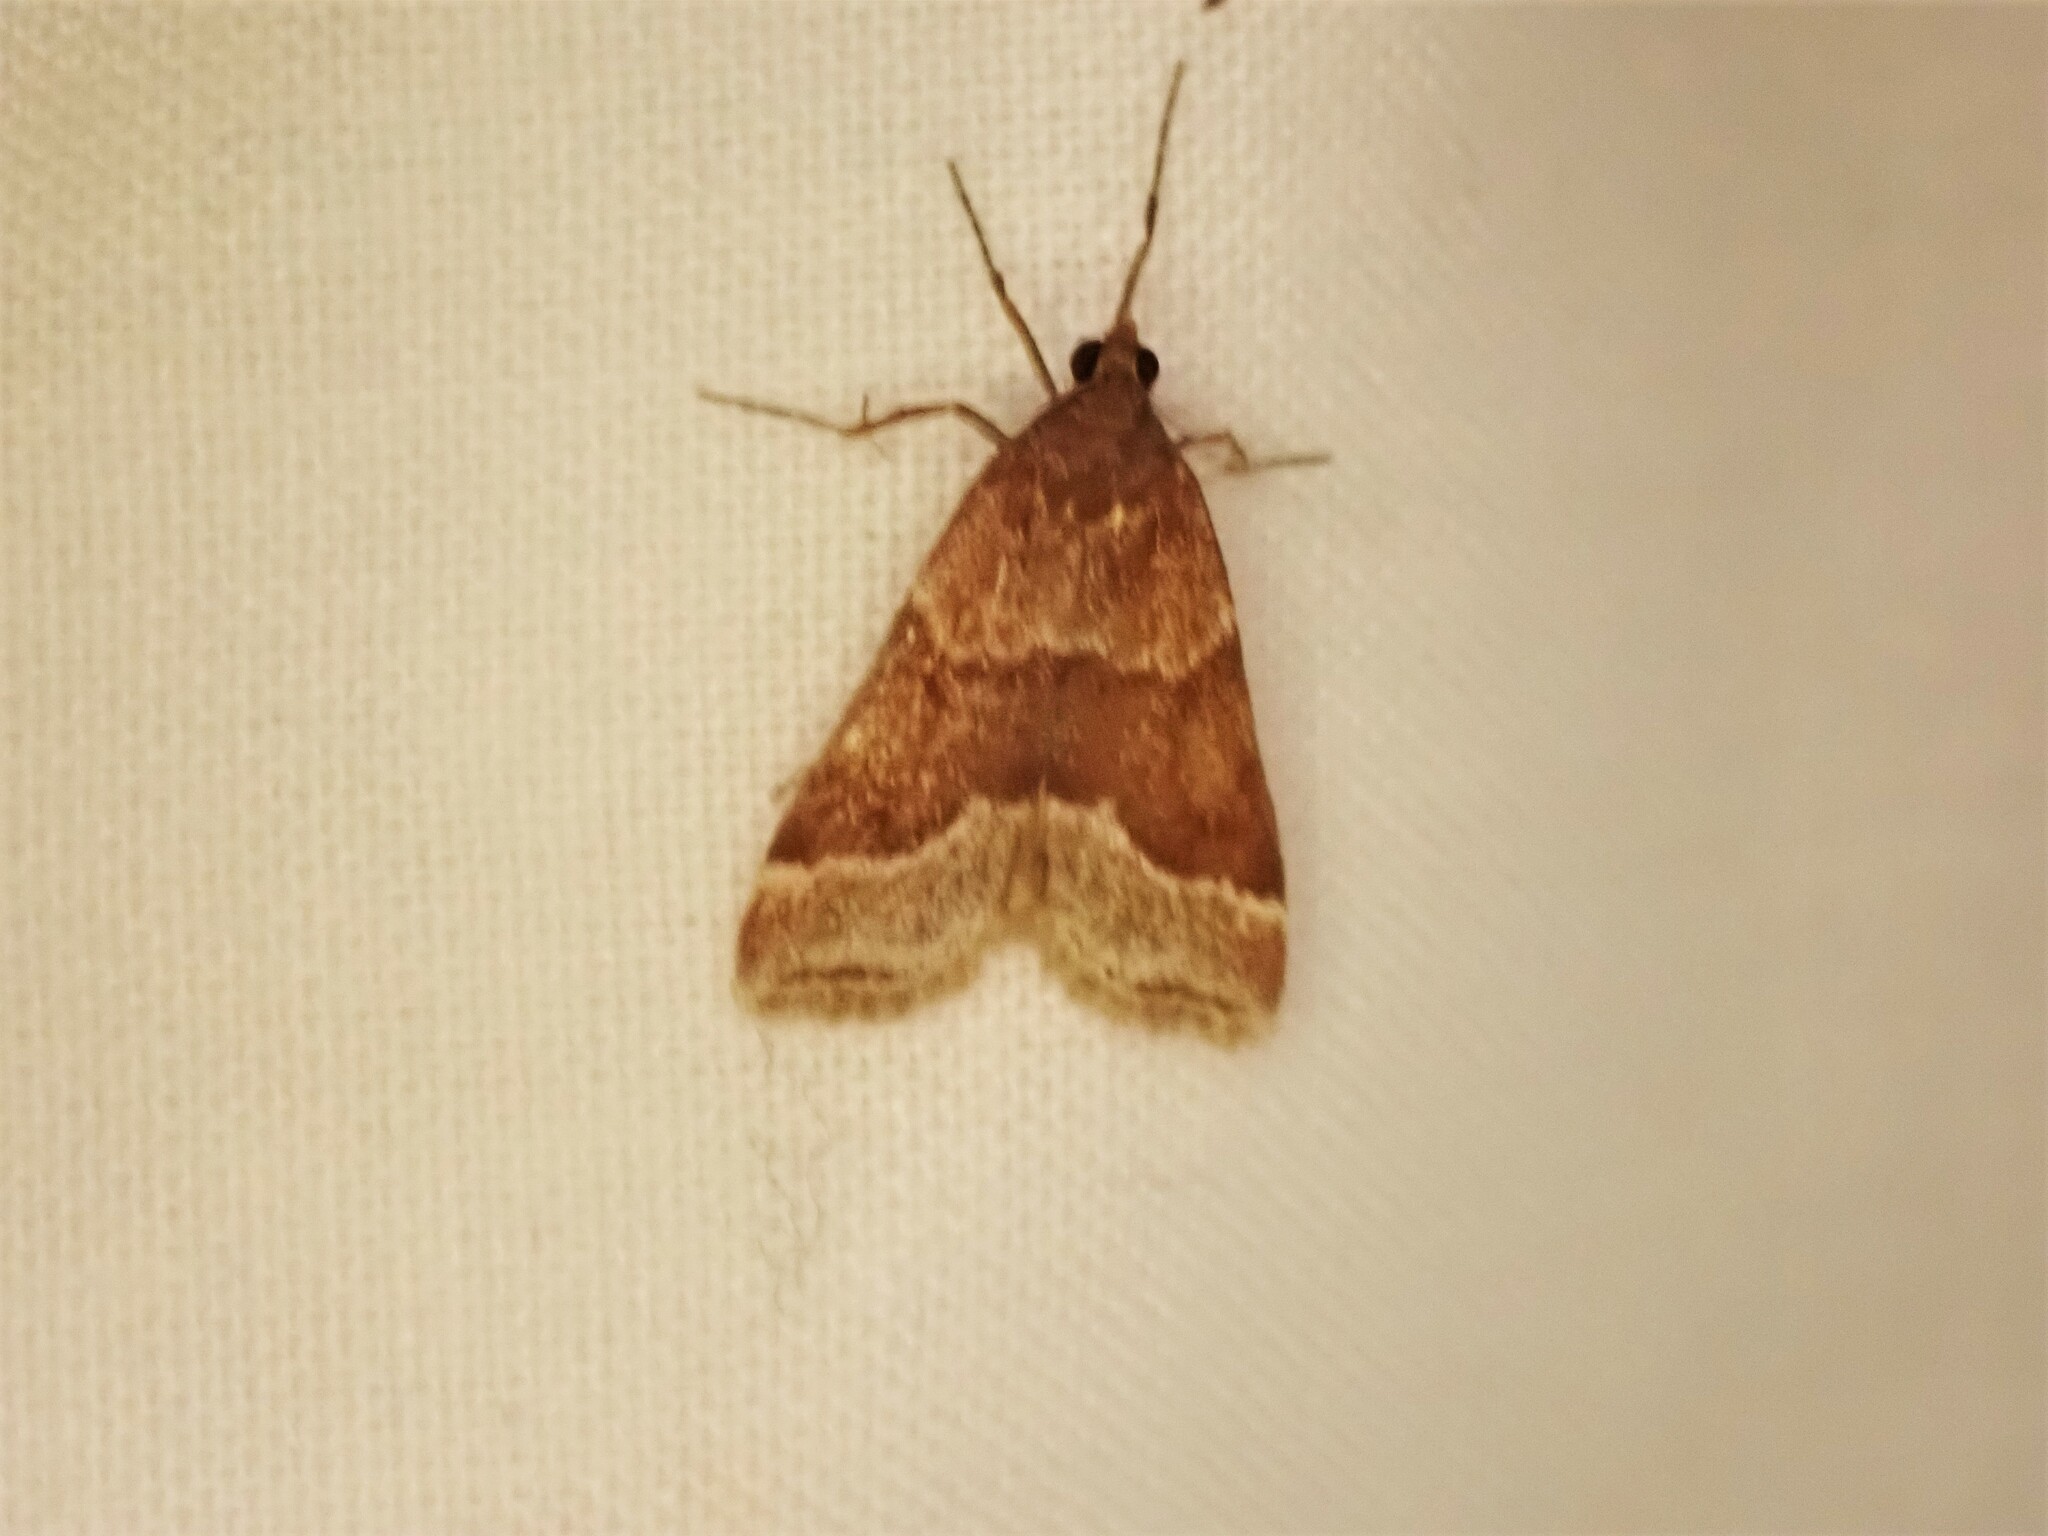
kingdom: Animalia
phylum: Arthropoda
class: Insecta
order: Lepidoptera
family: Crambidae
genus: Eudonia
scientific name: Eudonia feredayi
